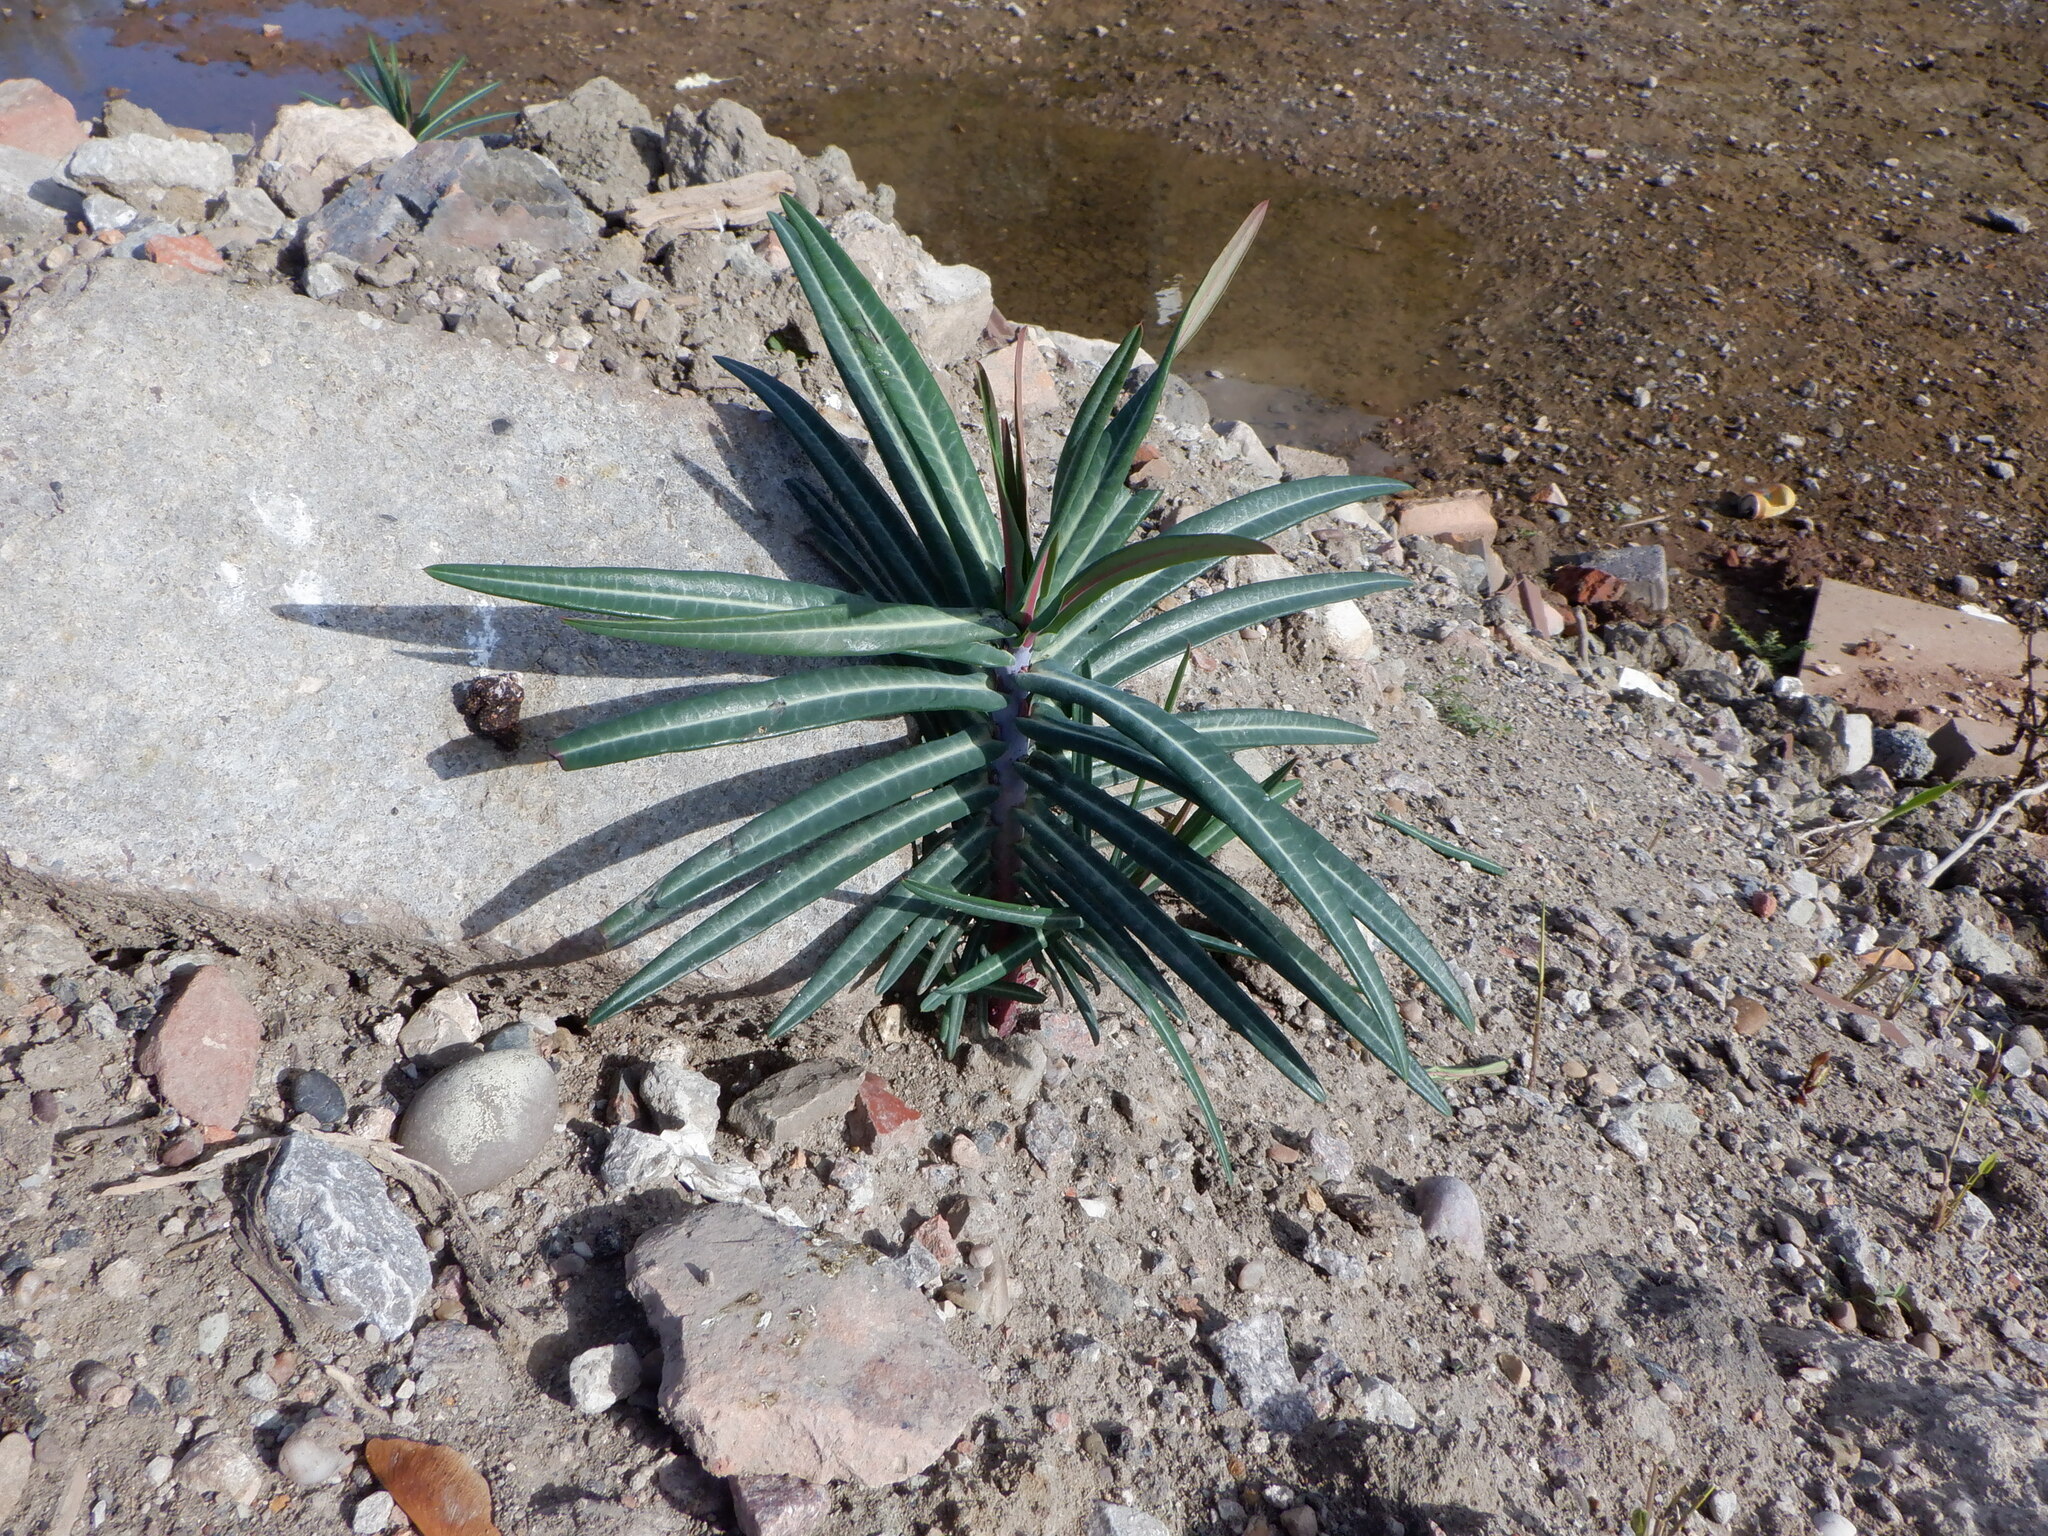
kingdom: Plantae
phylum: Tracheophyta
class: Magnoliopsida
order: Malpighiales
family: Euphorbiaceae
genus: Euphorbia
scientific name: Euphorbia lathyris
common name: Caper spurge
